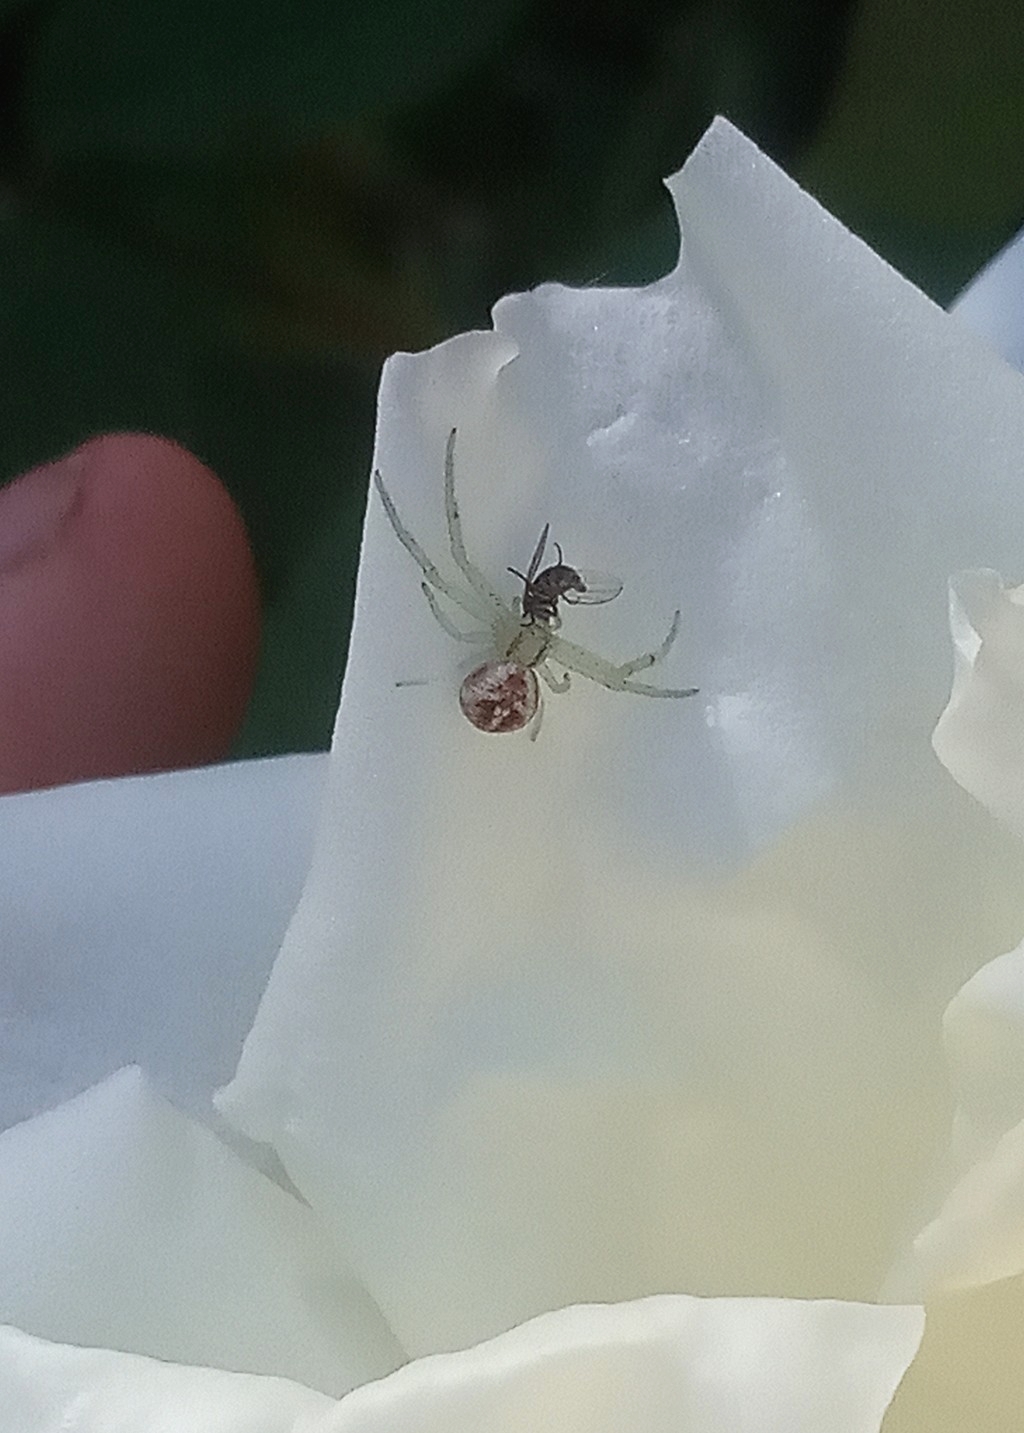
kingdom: Animalia
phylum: Arthropoda
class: Arachnida
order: Araneae
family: Thomisidae
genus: Misumenops
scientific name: Misumenops
